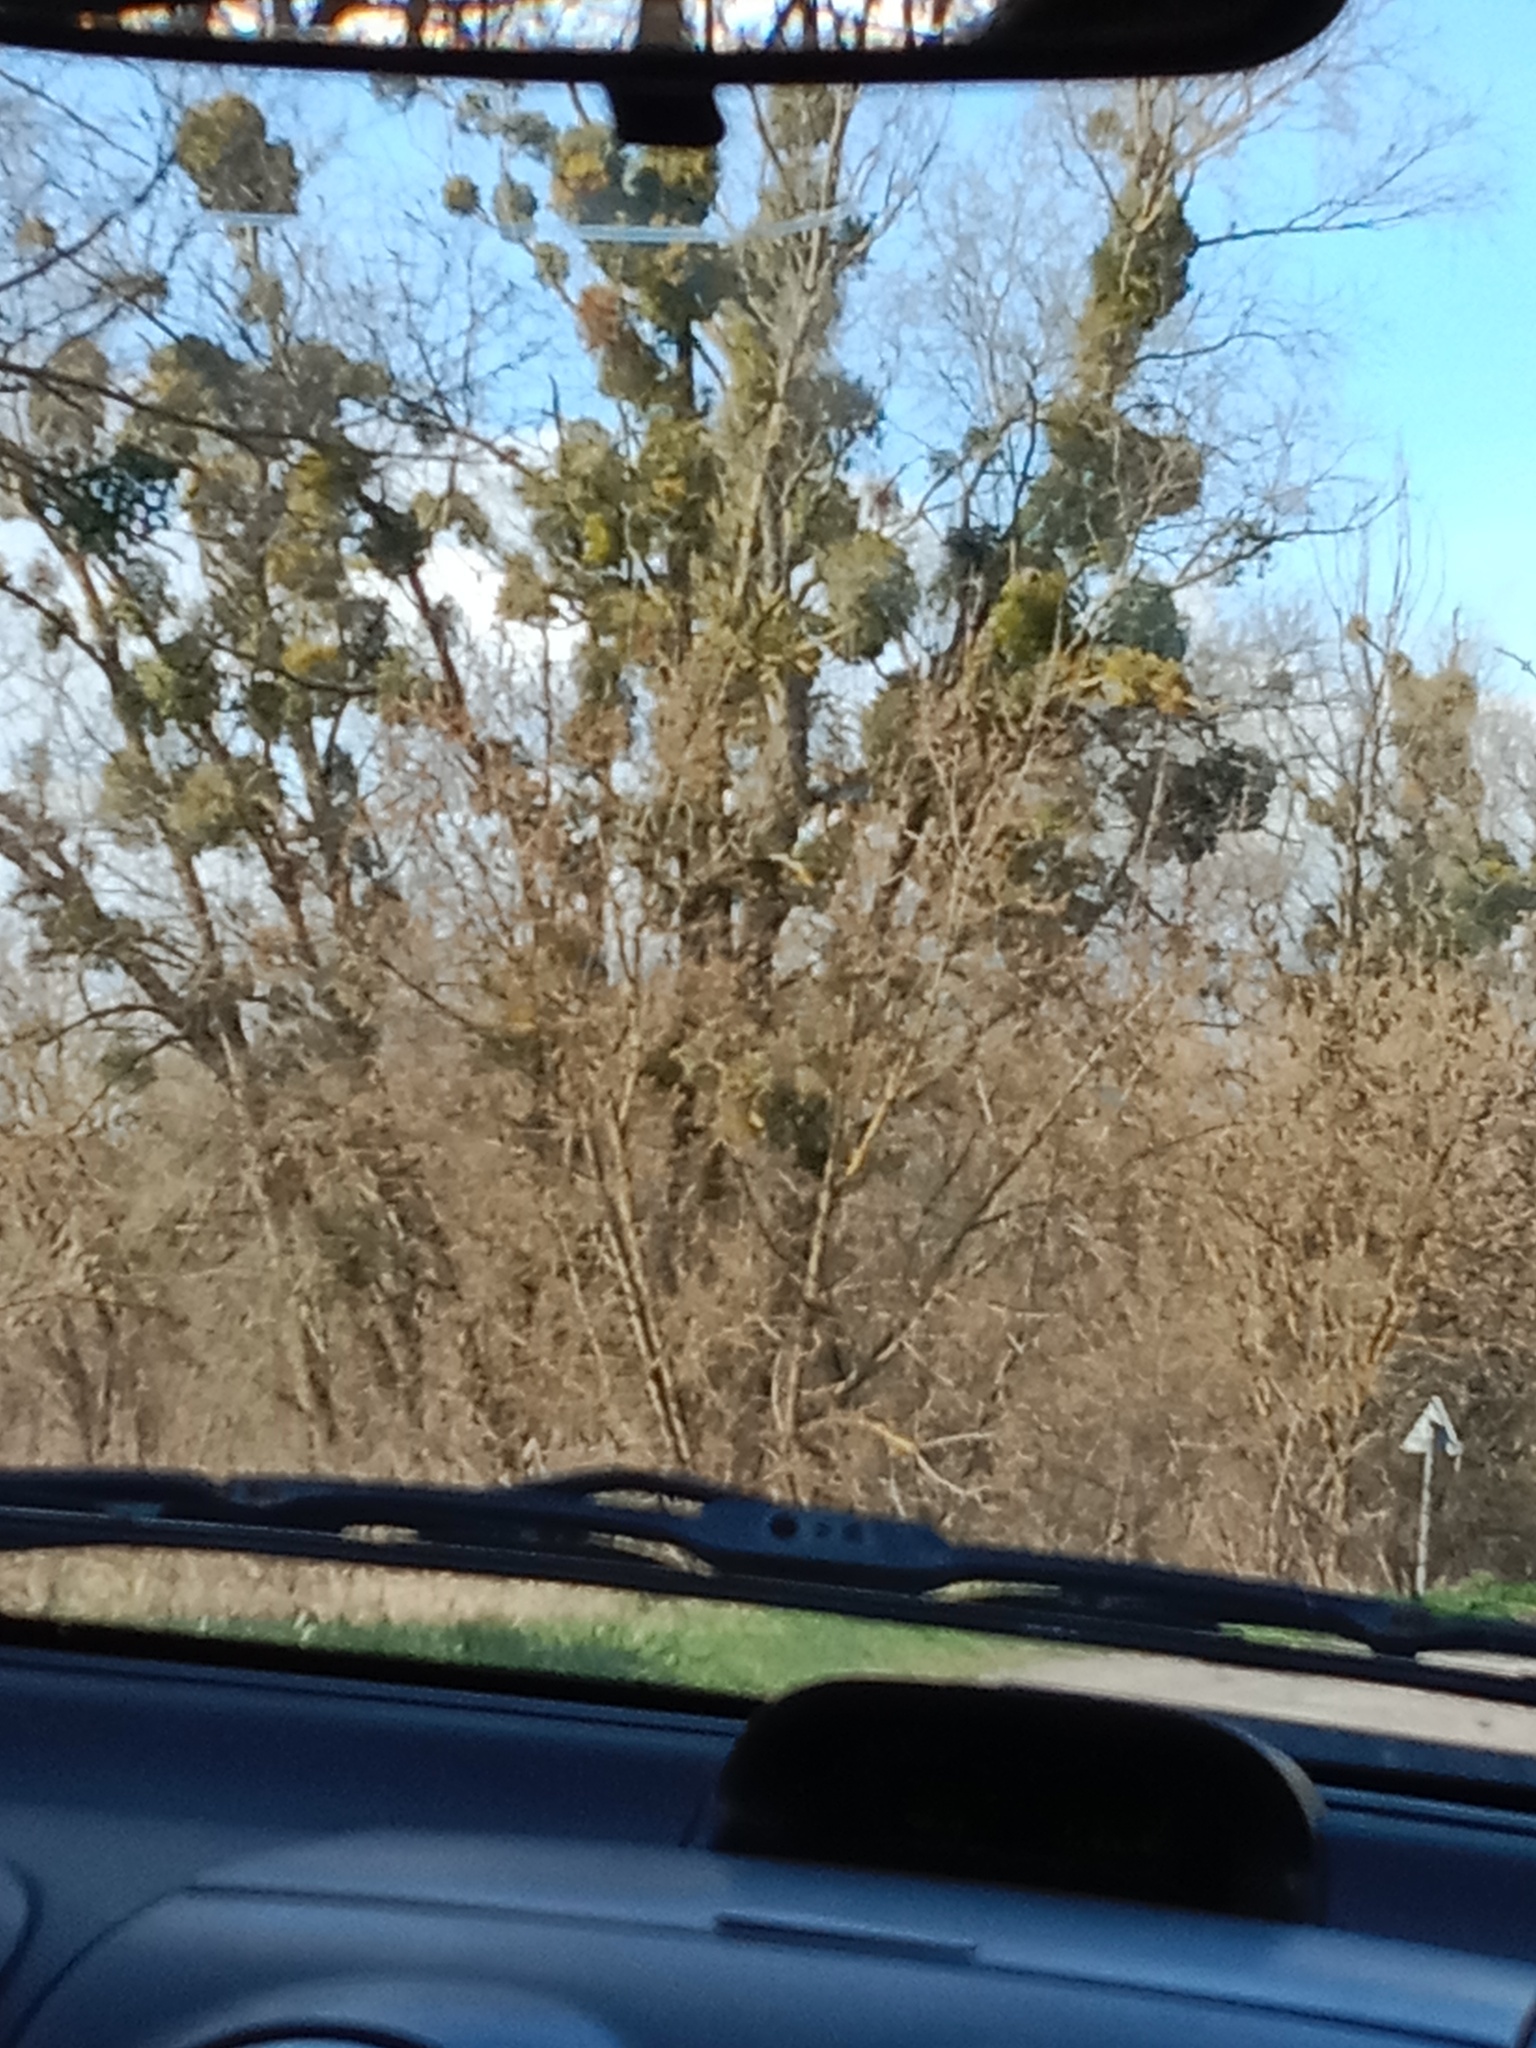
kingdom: Plantae
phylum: Tracheophyta
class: Magnoliopsida
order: Santalales
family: Viscaceae
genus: Viscum
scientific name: Viscum album
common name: Mistletoe
